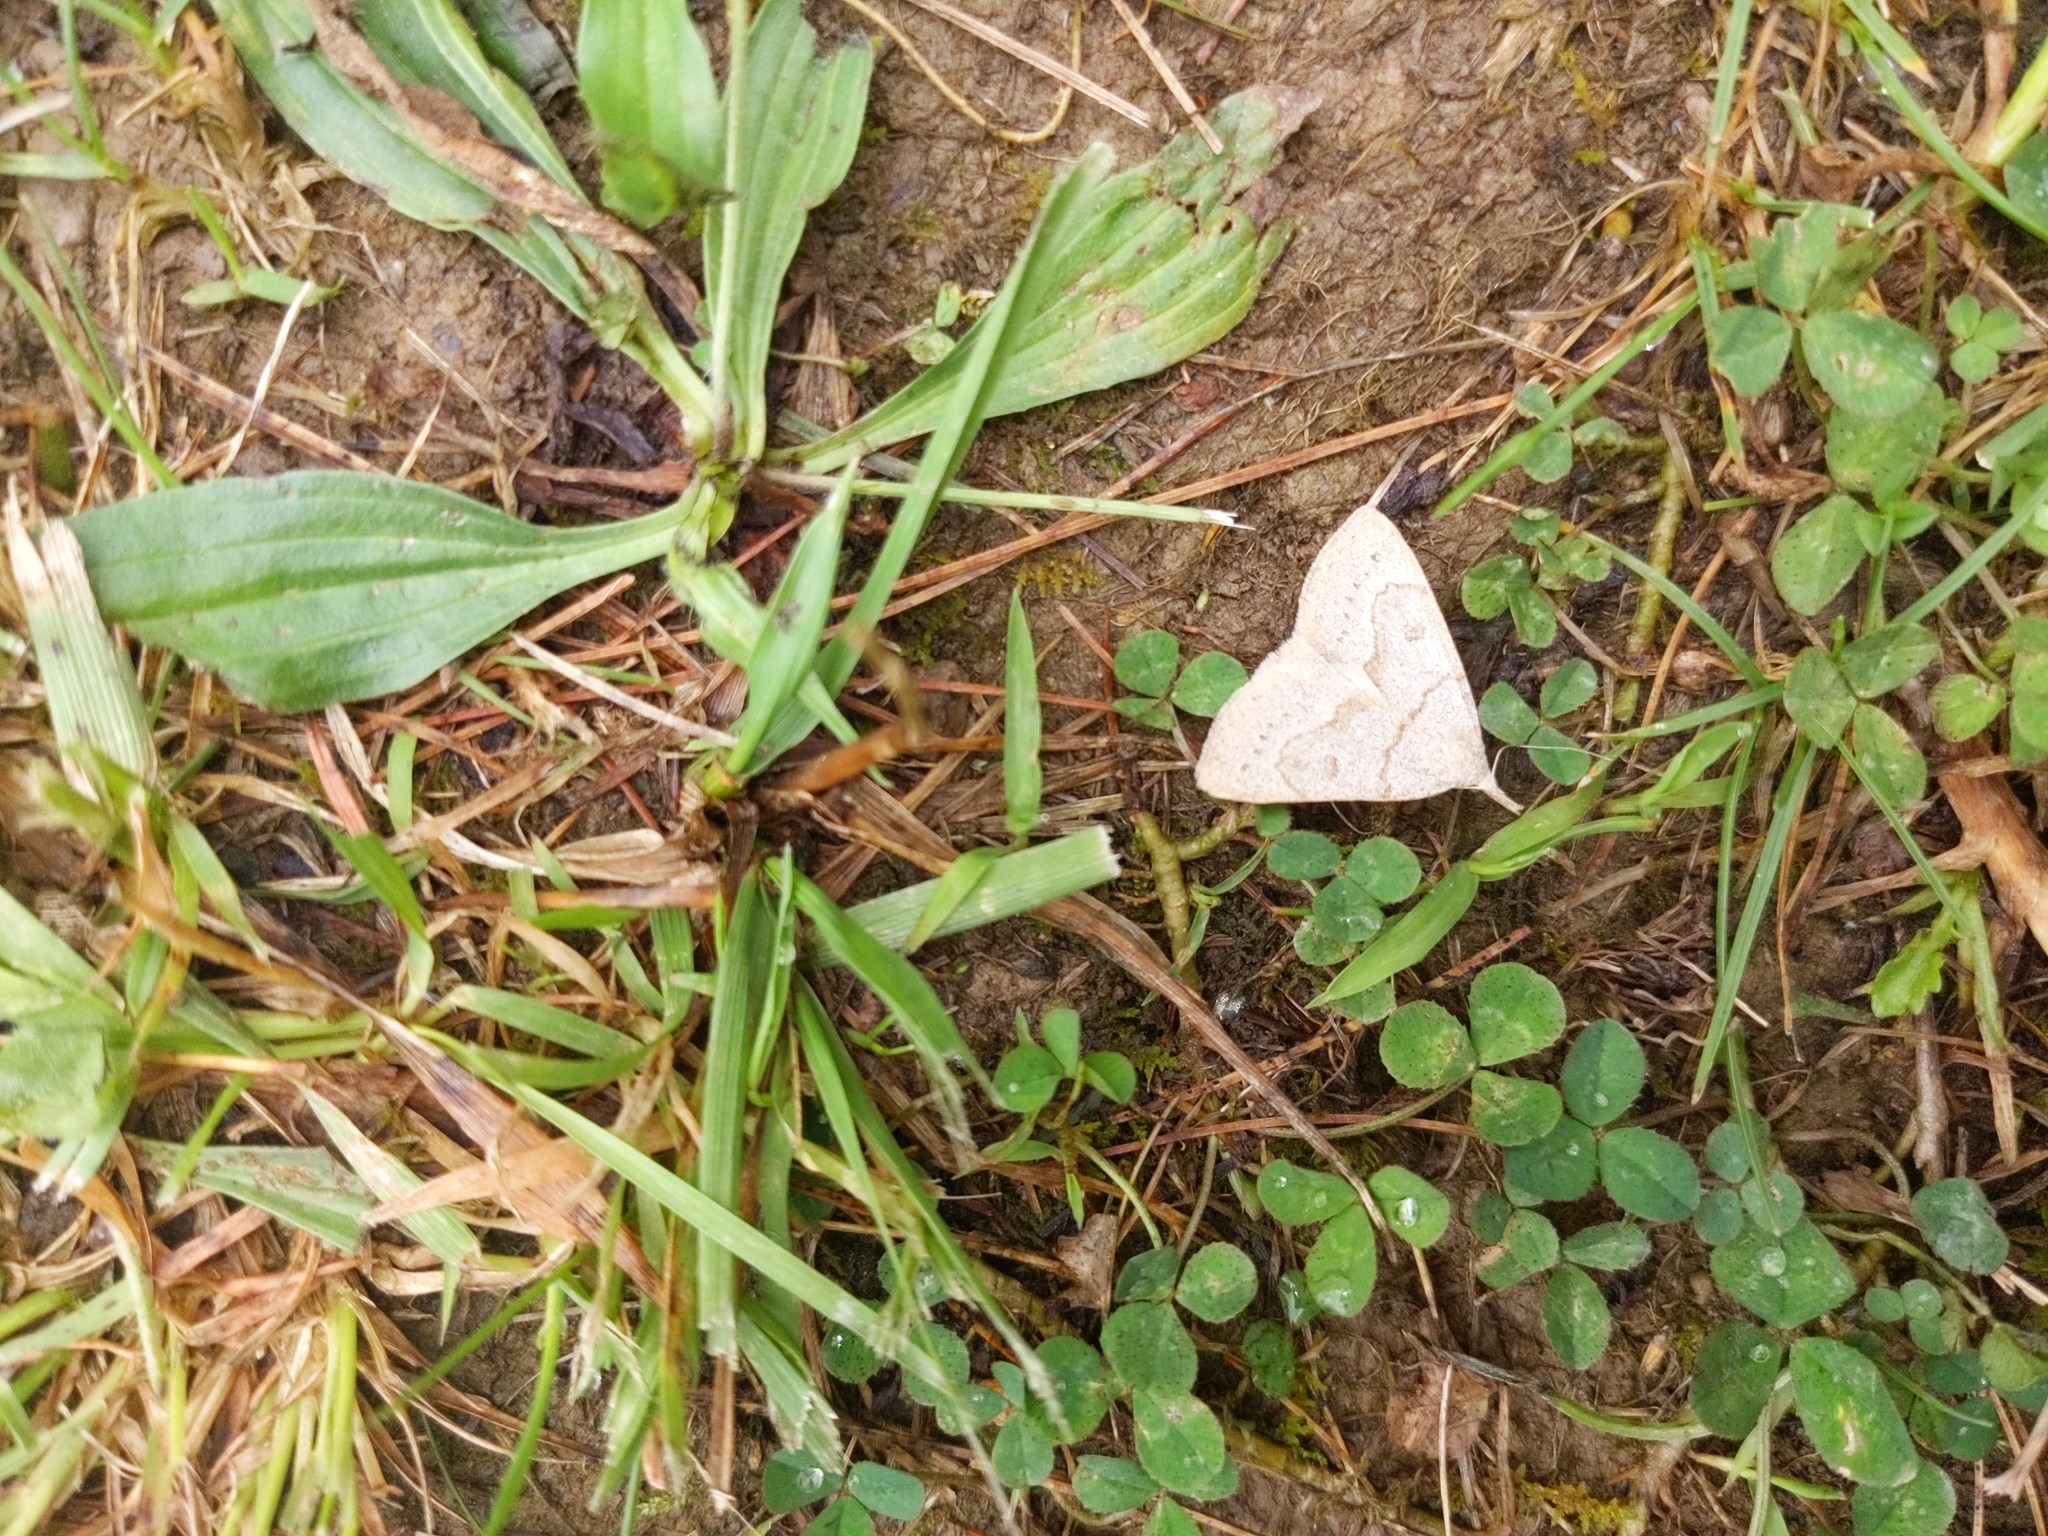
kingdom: Animalia
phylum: Arthropoda
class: Insecta
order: Lepidoptera
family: Erebidae
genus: Macrochilo
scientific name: Macrochilo morbidalis
